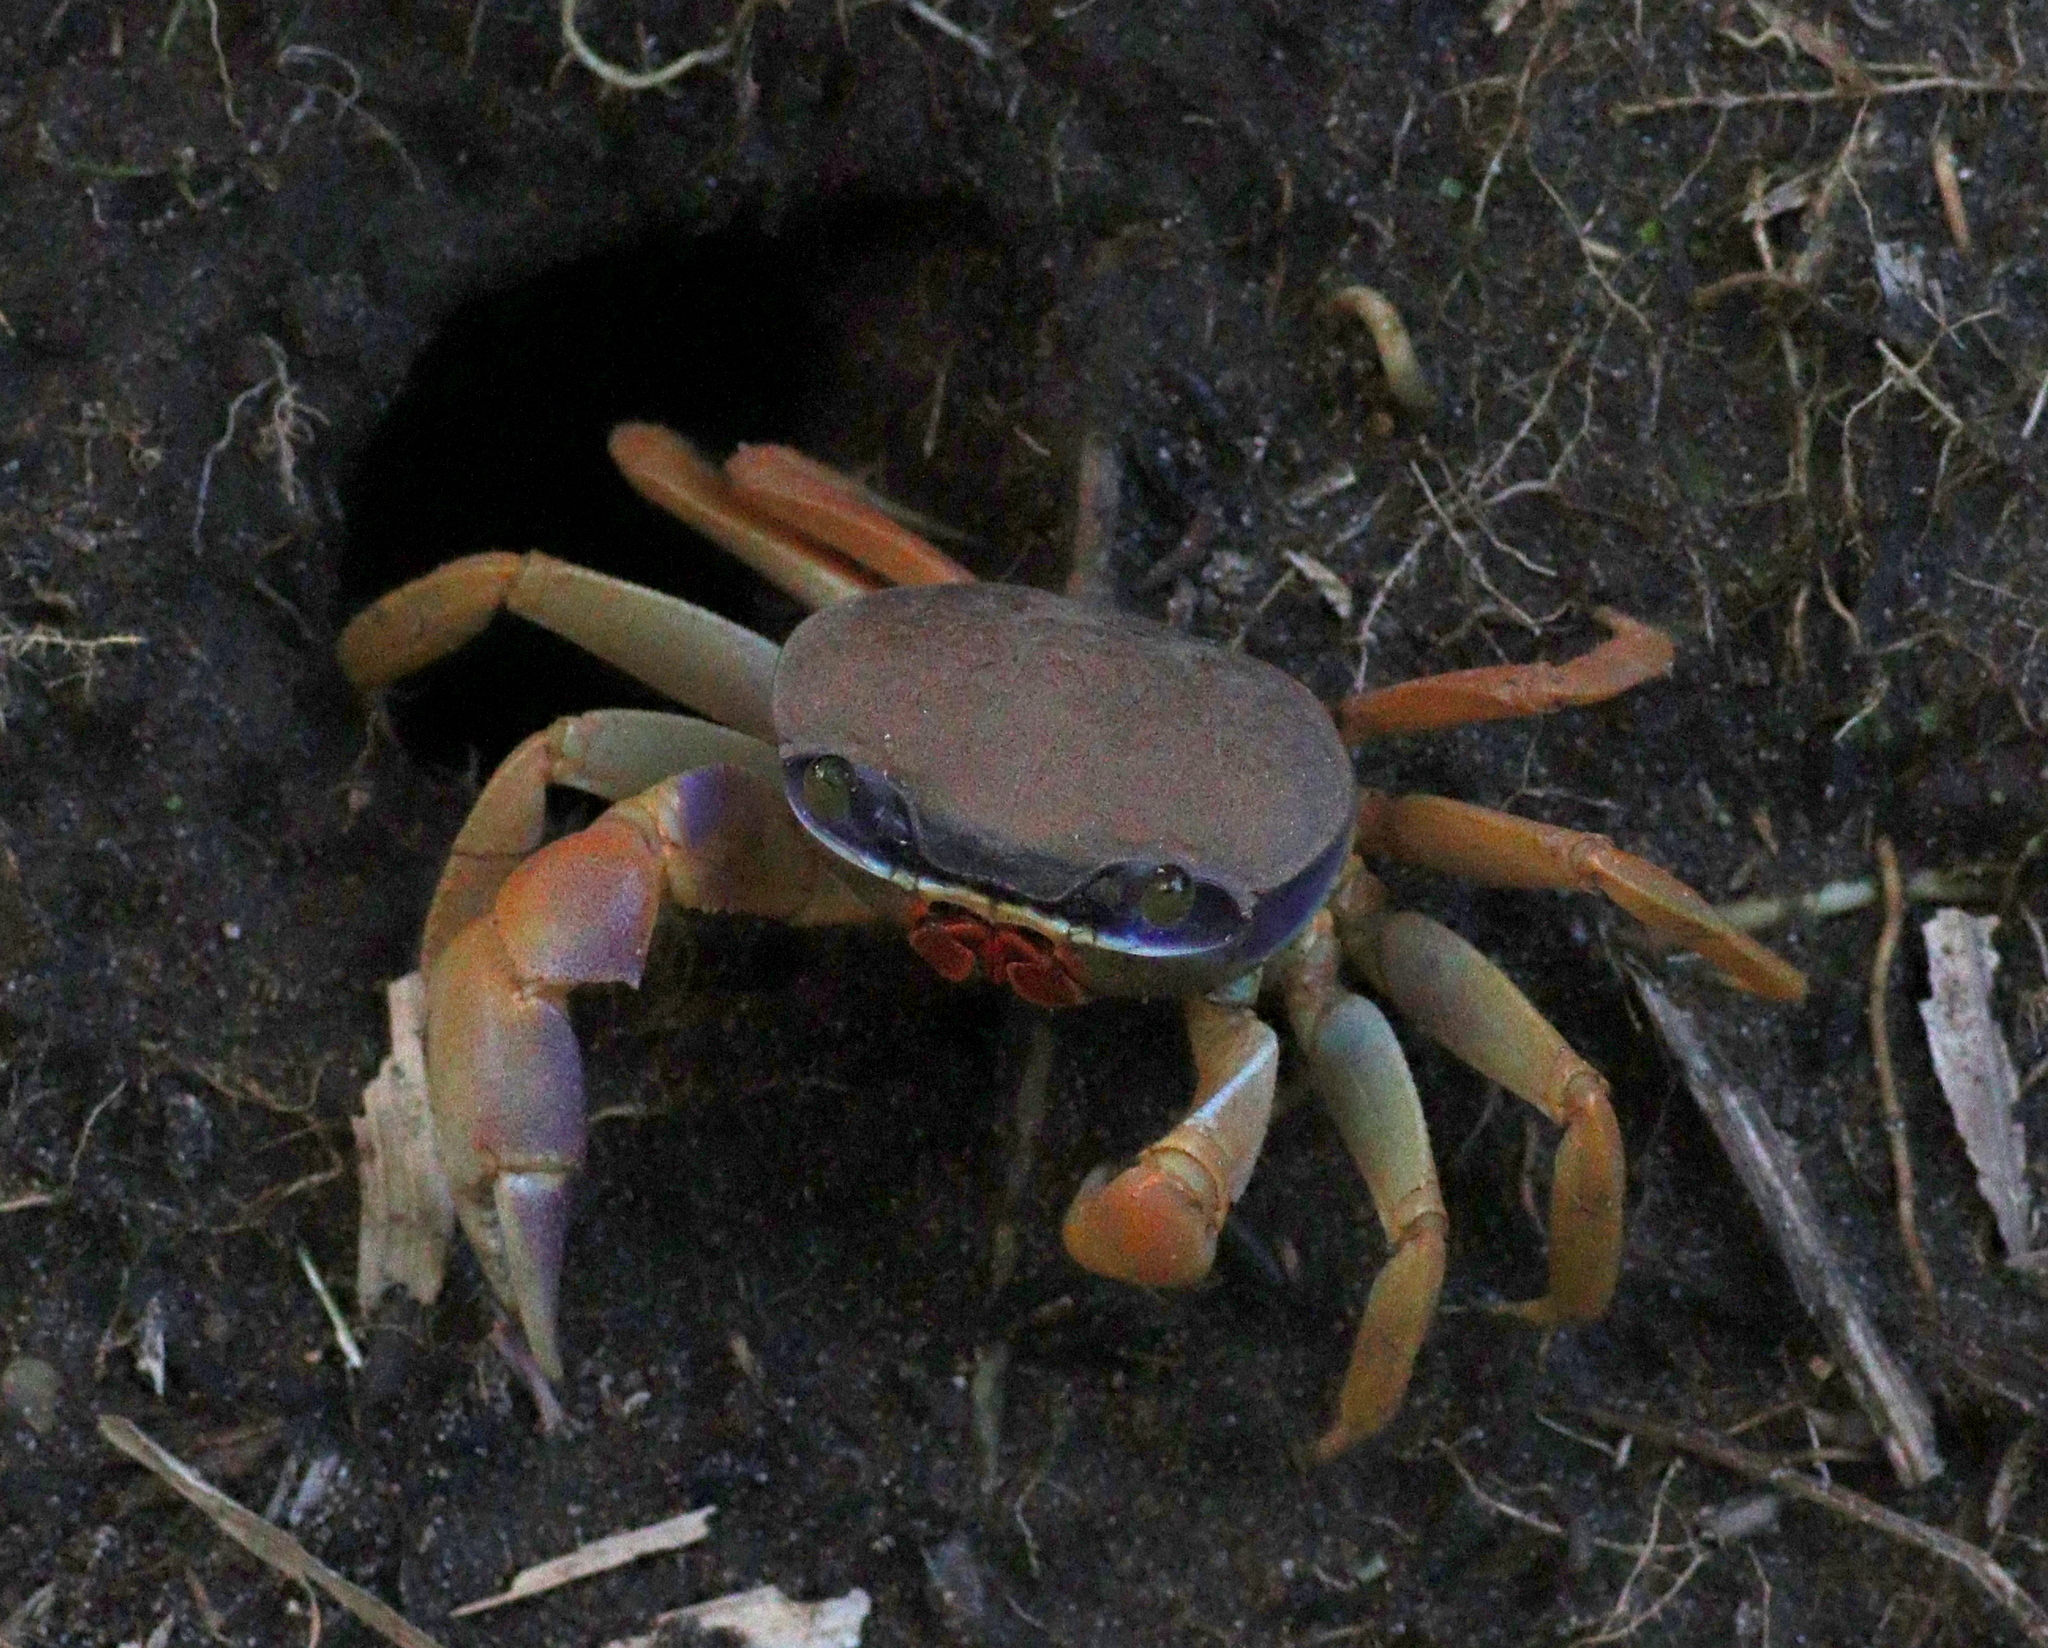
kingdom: Animalia
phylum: Arthropoda
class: Malacostraca
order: Decapoda
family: Gecarcinidae
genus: Cardisoma
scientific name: Cardisoma guanhumi
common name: Great land crab
